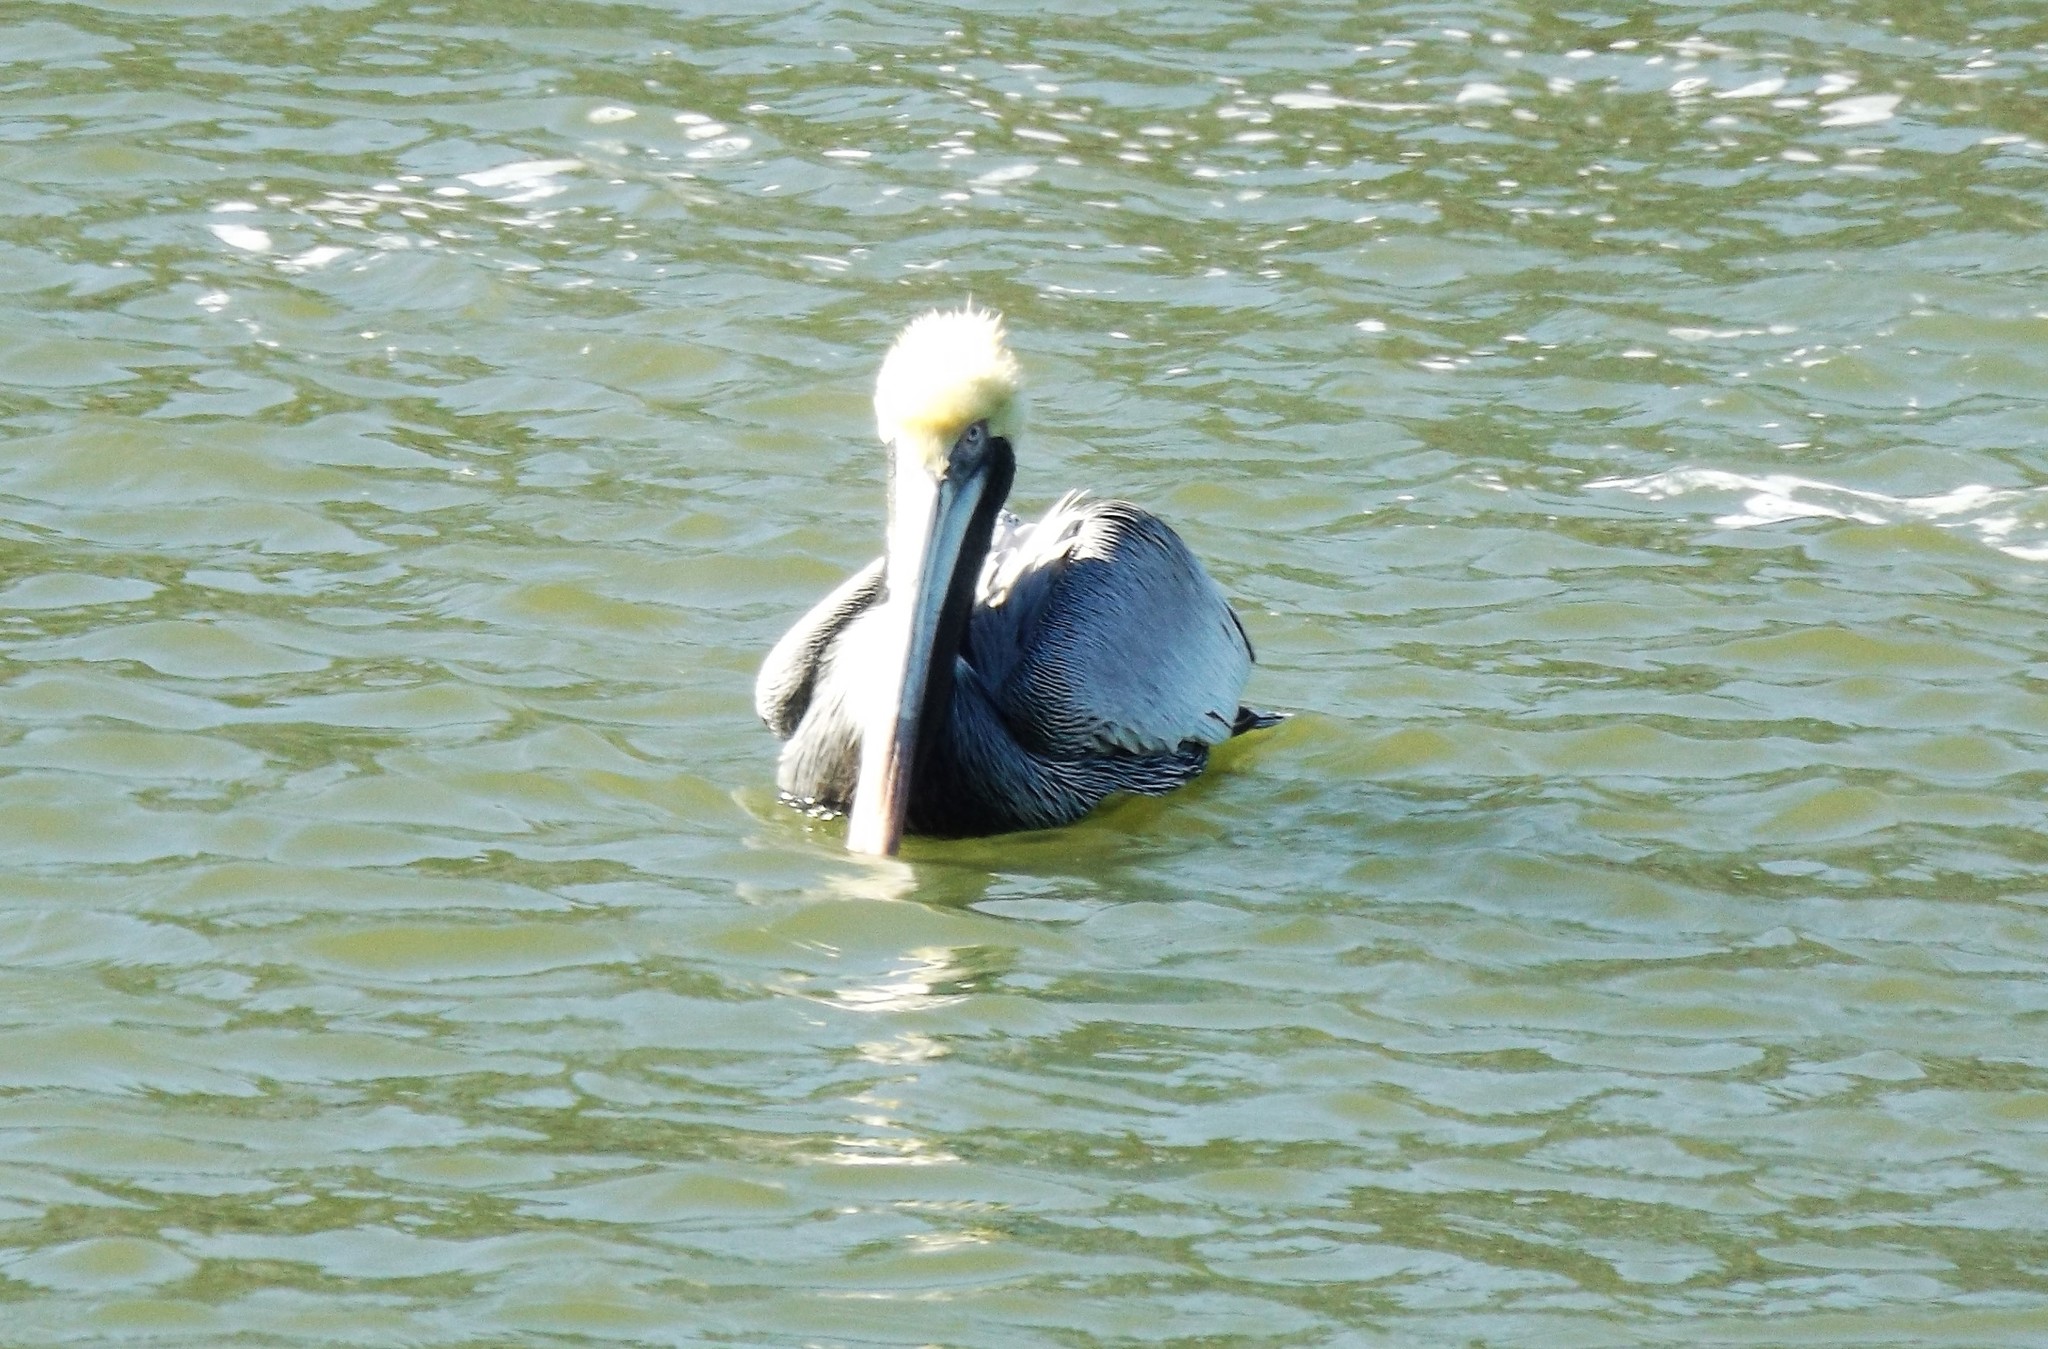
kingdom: Animalia
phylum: Chordata
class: Aves
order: Pelecaniformes
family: Pelecanidae
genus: Pelecanus
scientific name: Pelecanus occidentalis
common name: Brown pelican
